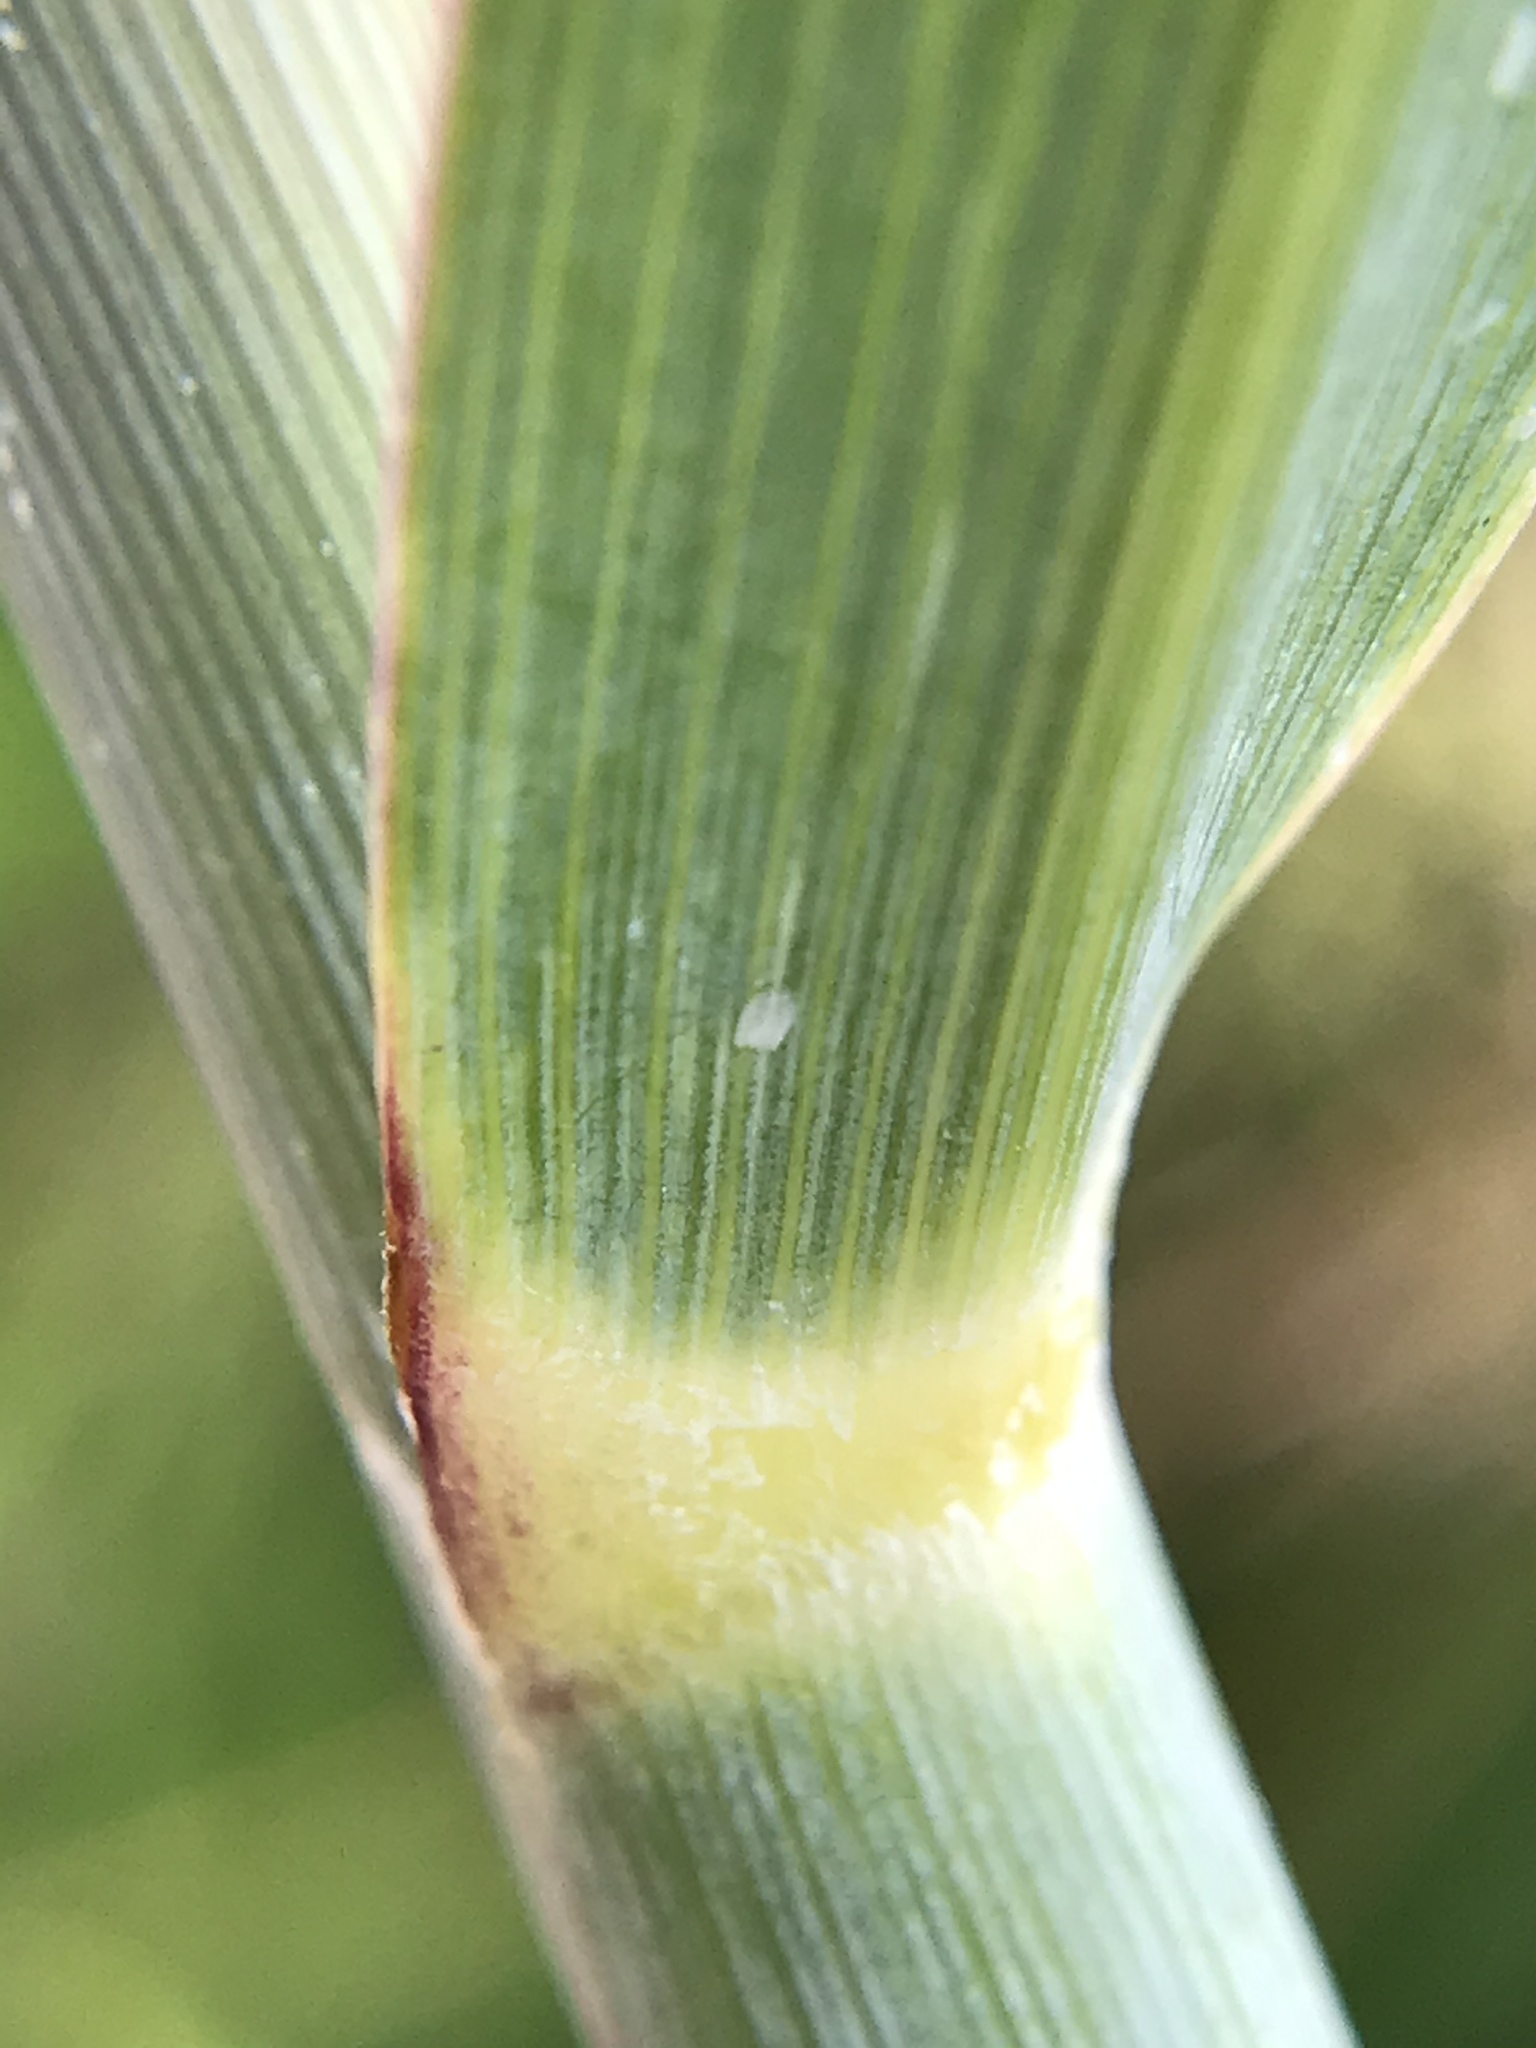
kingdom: Plantae
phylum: Tracheophyta
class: Liliopsida
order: Poales
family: Poaceae
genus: Panicum
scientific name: Panicum amarum
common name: Bitter panicum
